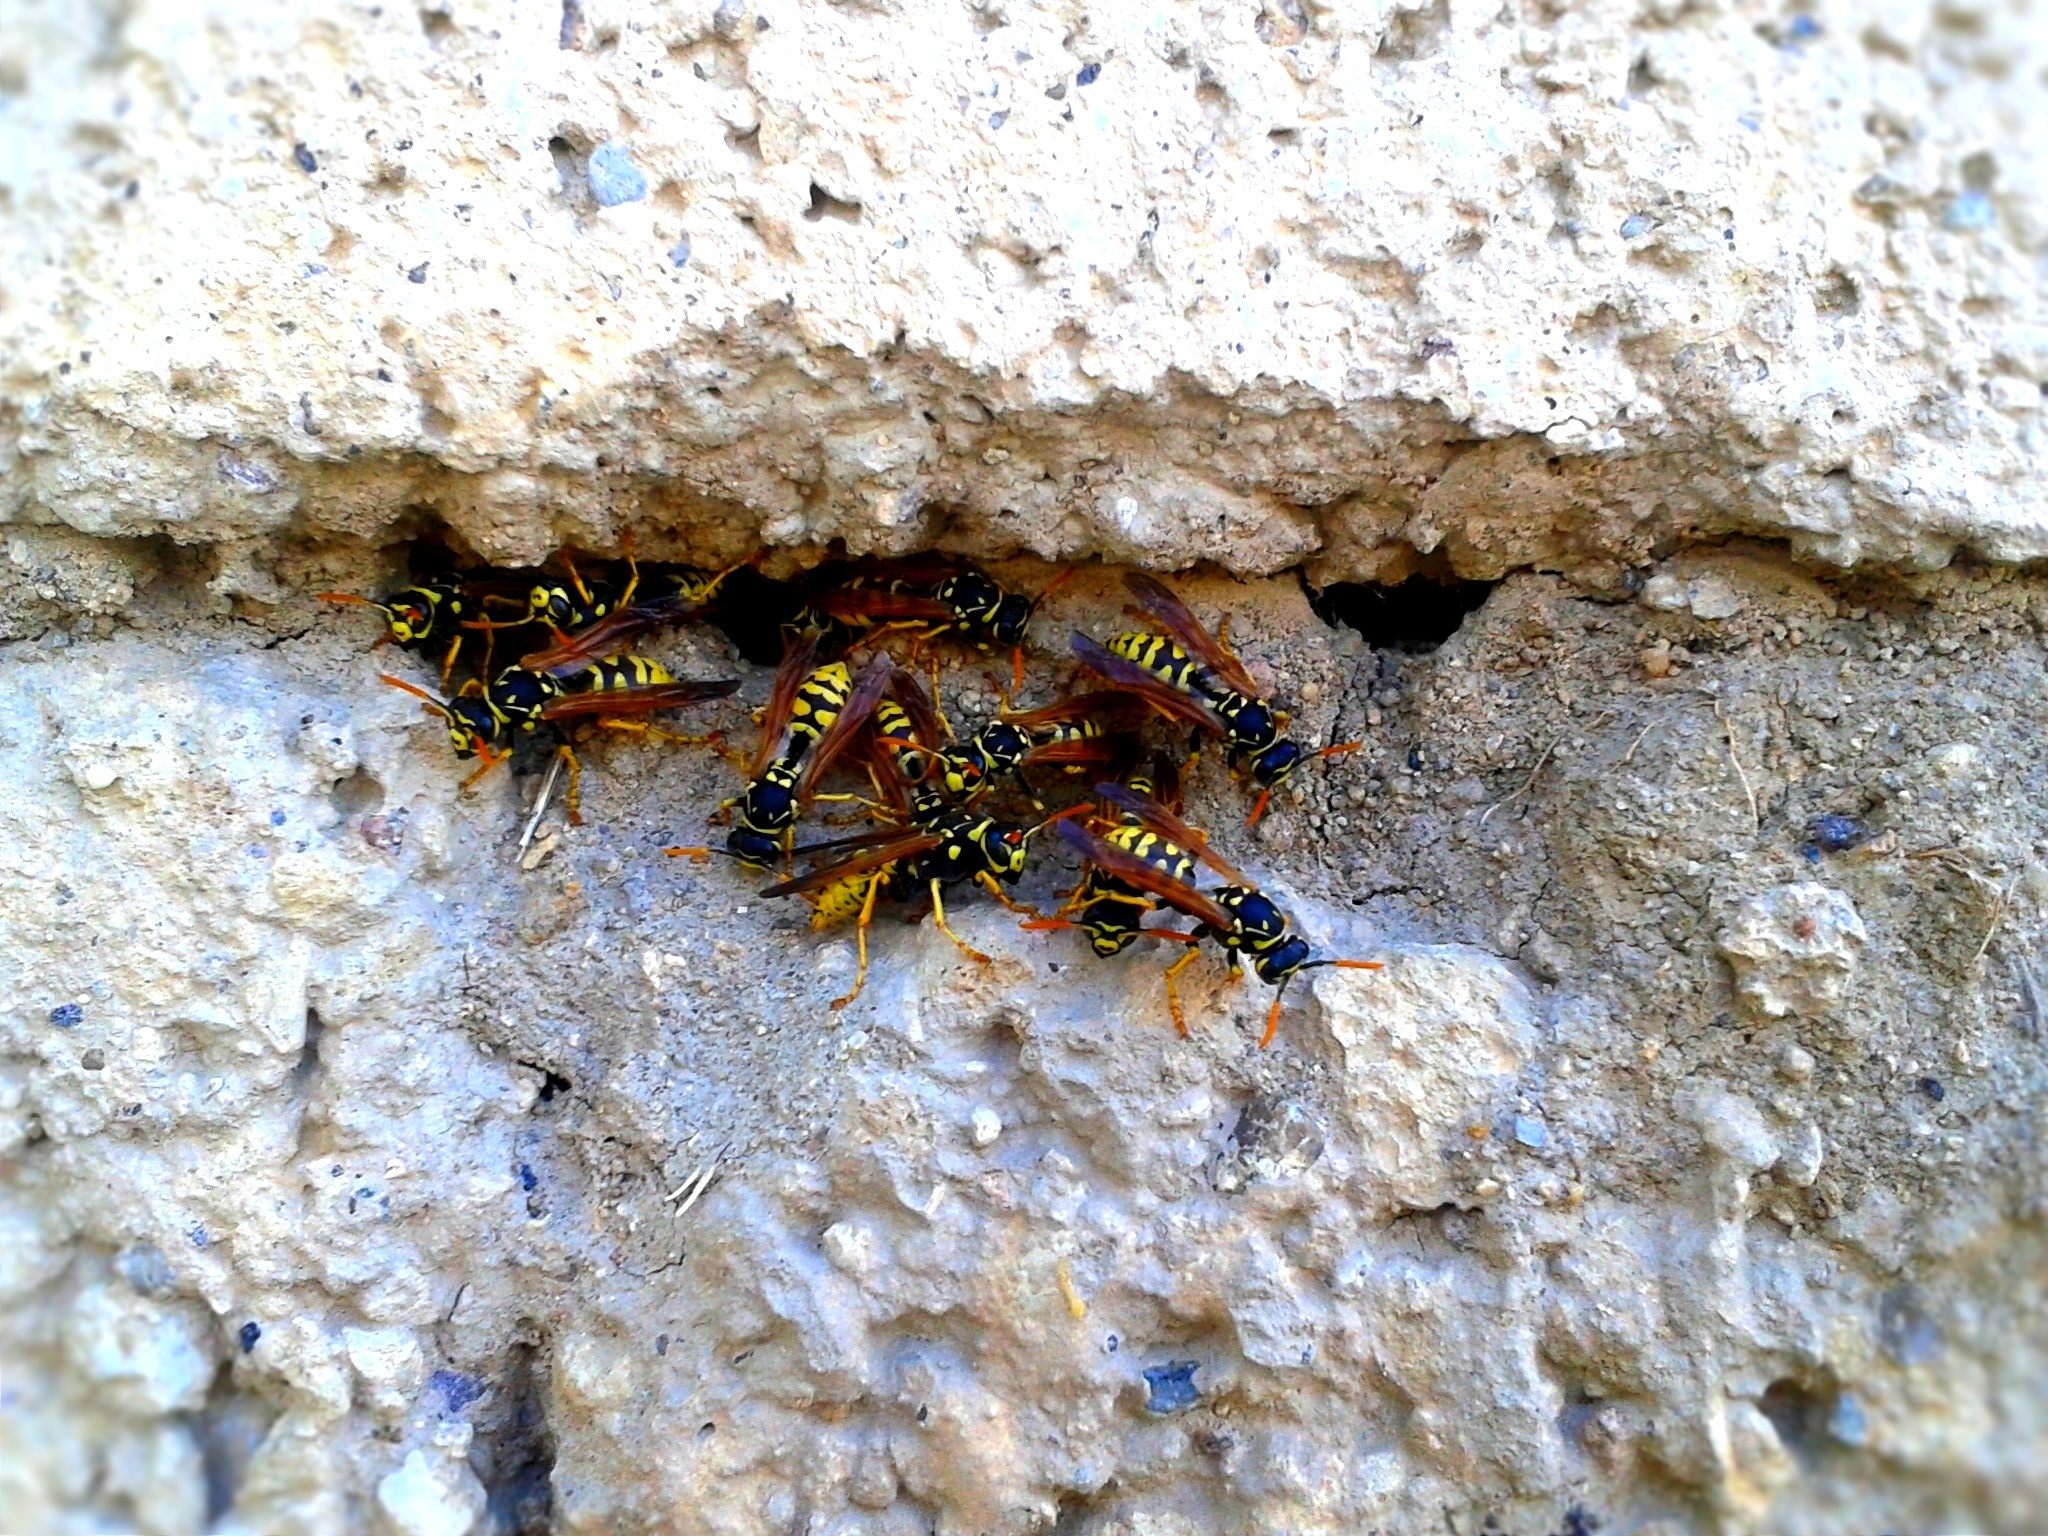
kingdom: Animalia
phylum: Arthropoda
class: Insecta
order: Hymenoptera
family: Eumenidae
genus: Polistes
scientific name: Polistes dominula
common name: Paper wasp
